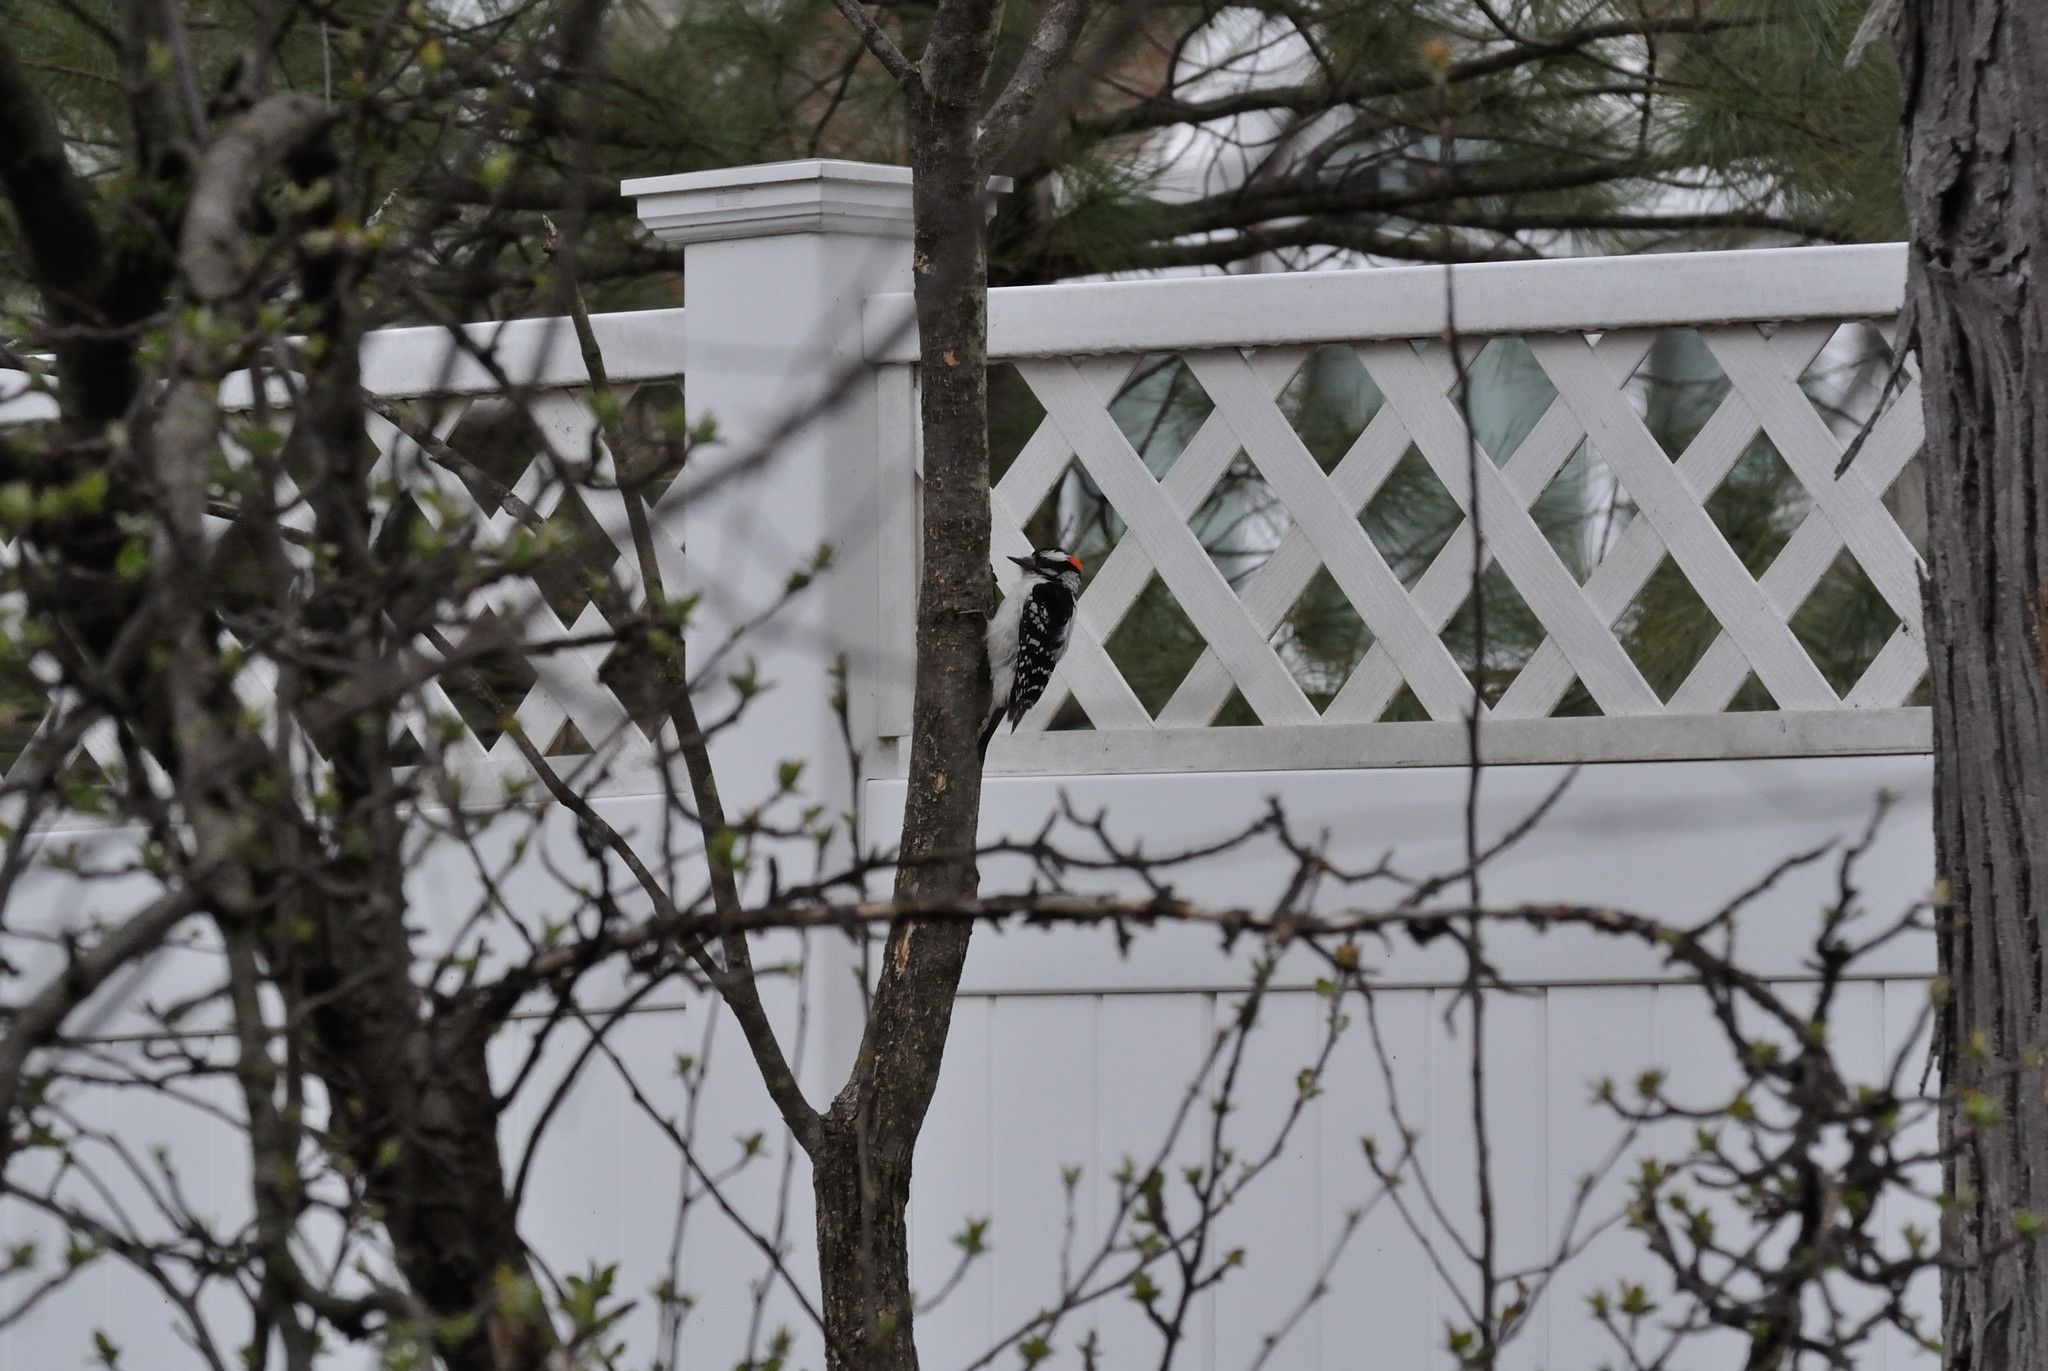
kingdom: Animalia
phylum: Chordata
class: Aves
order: Piciformes
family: Picidae
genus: Dryobates
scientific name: Dryobates pubescens
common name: Downy woodpecker
